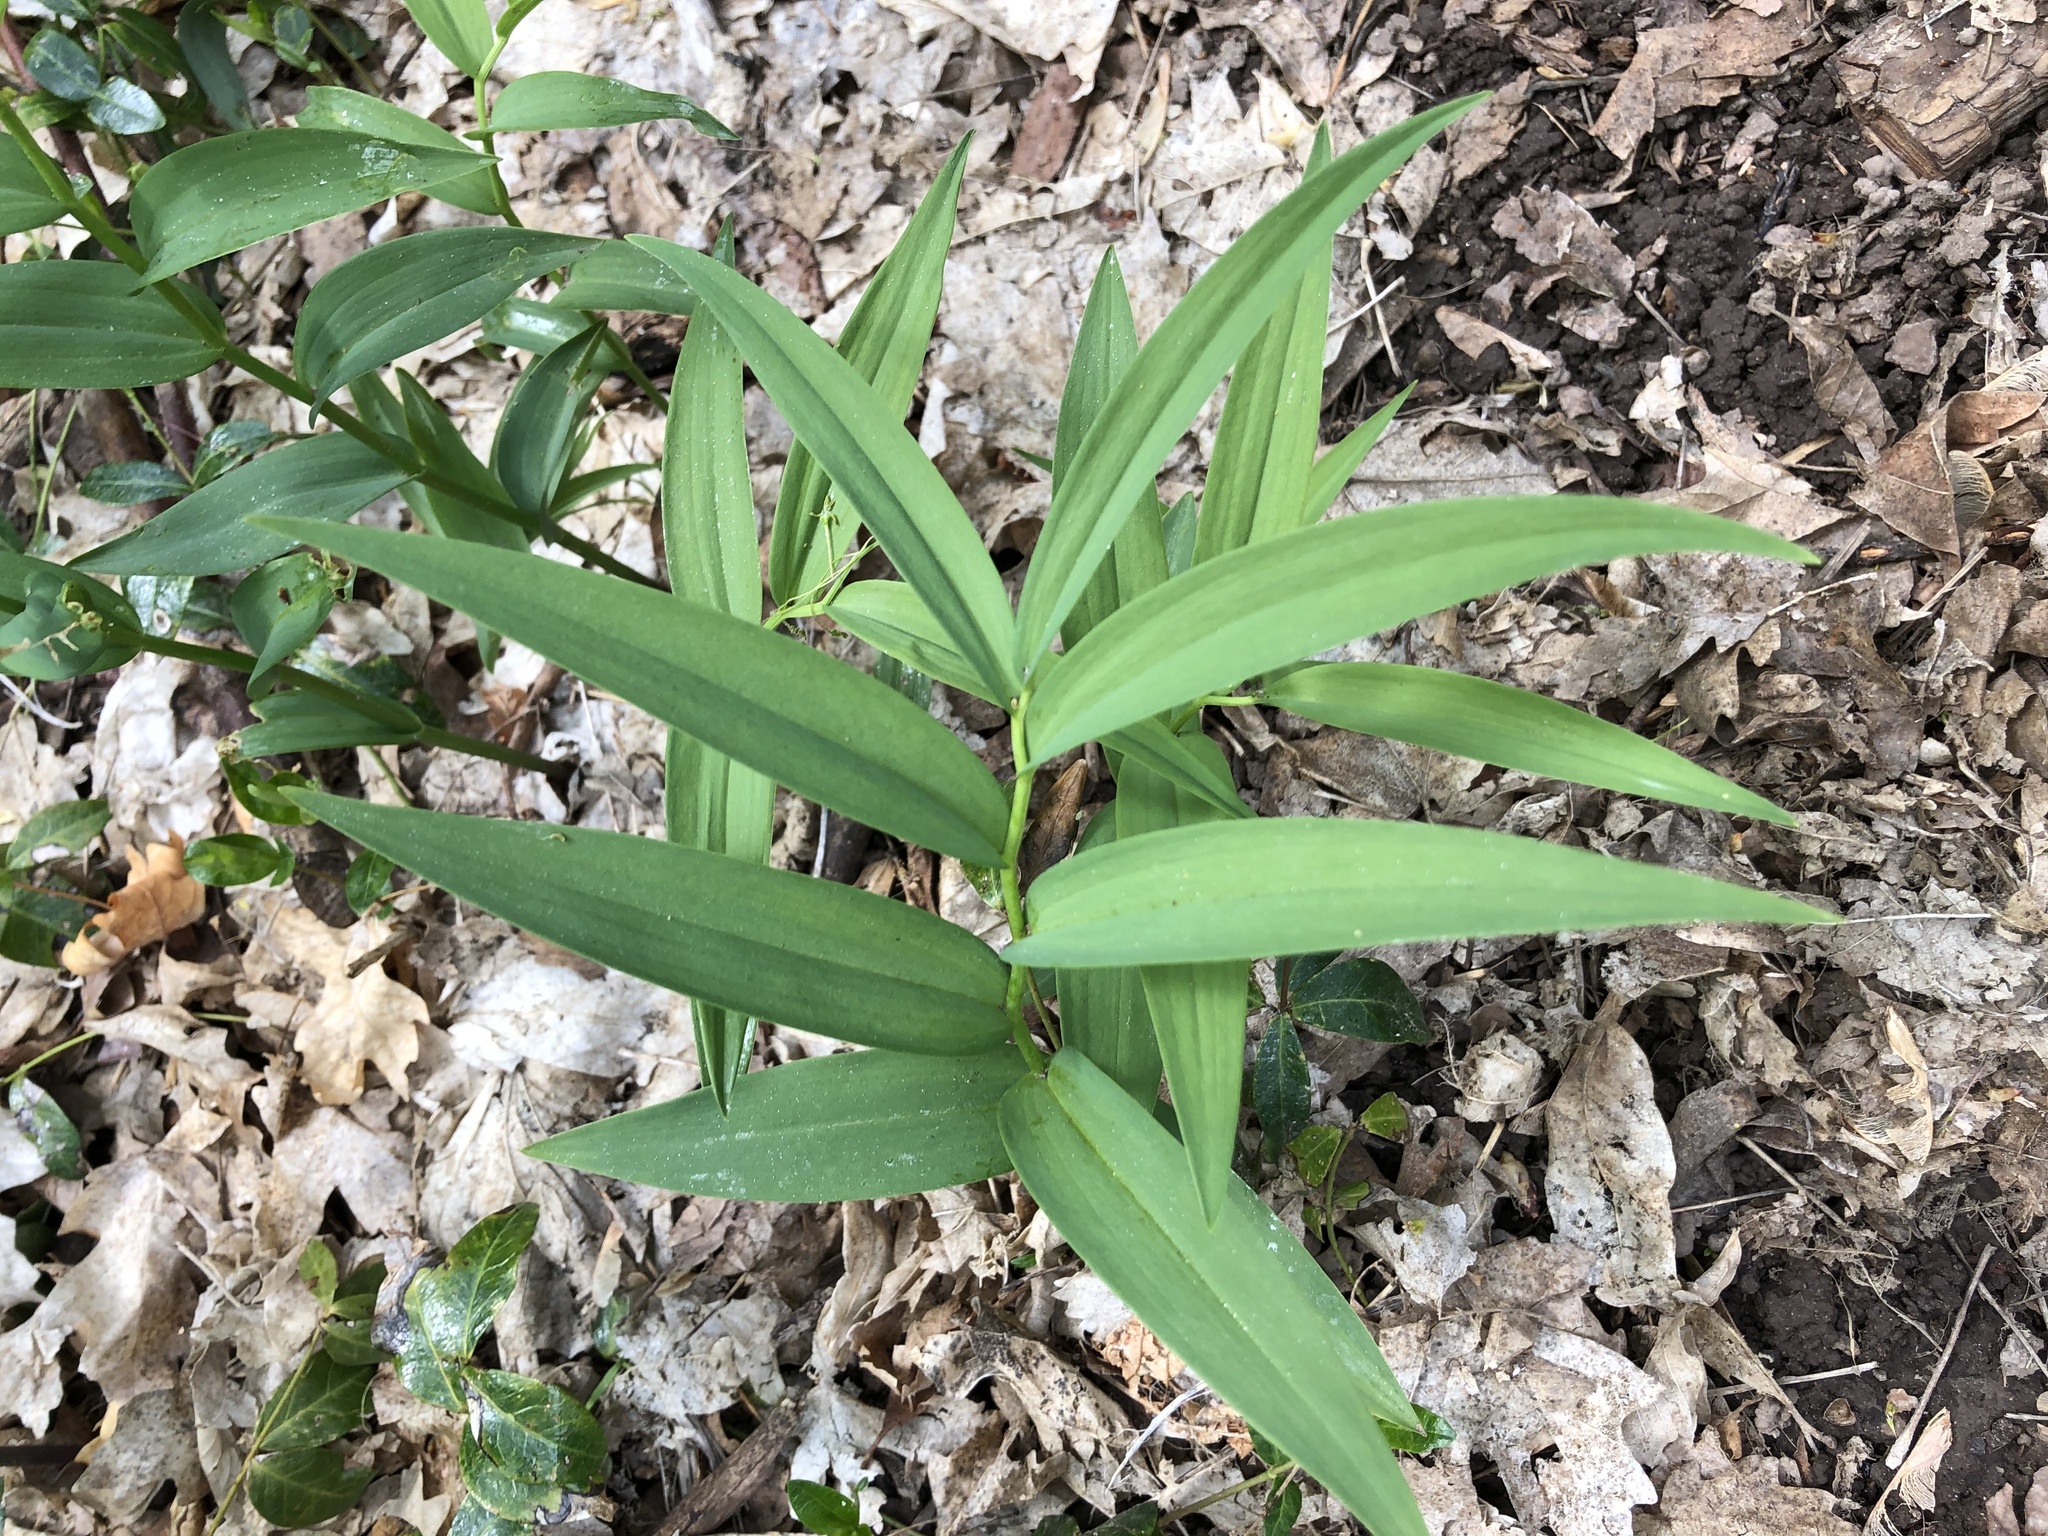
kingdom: Plantae
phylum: Tracheophyta
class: Liliopsida
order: Asparagales
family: Asparagaceae
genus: Maianthemum
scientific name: Maianthemum stellatum
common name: Little false solomon's seal
